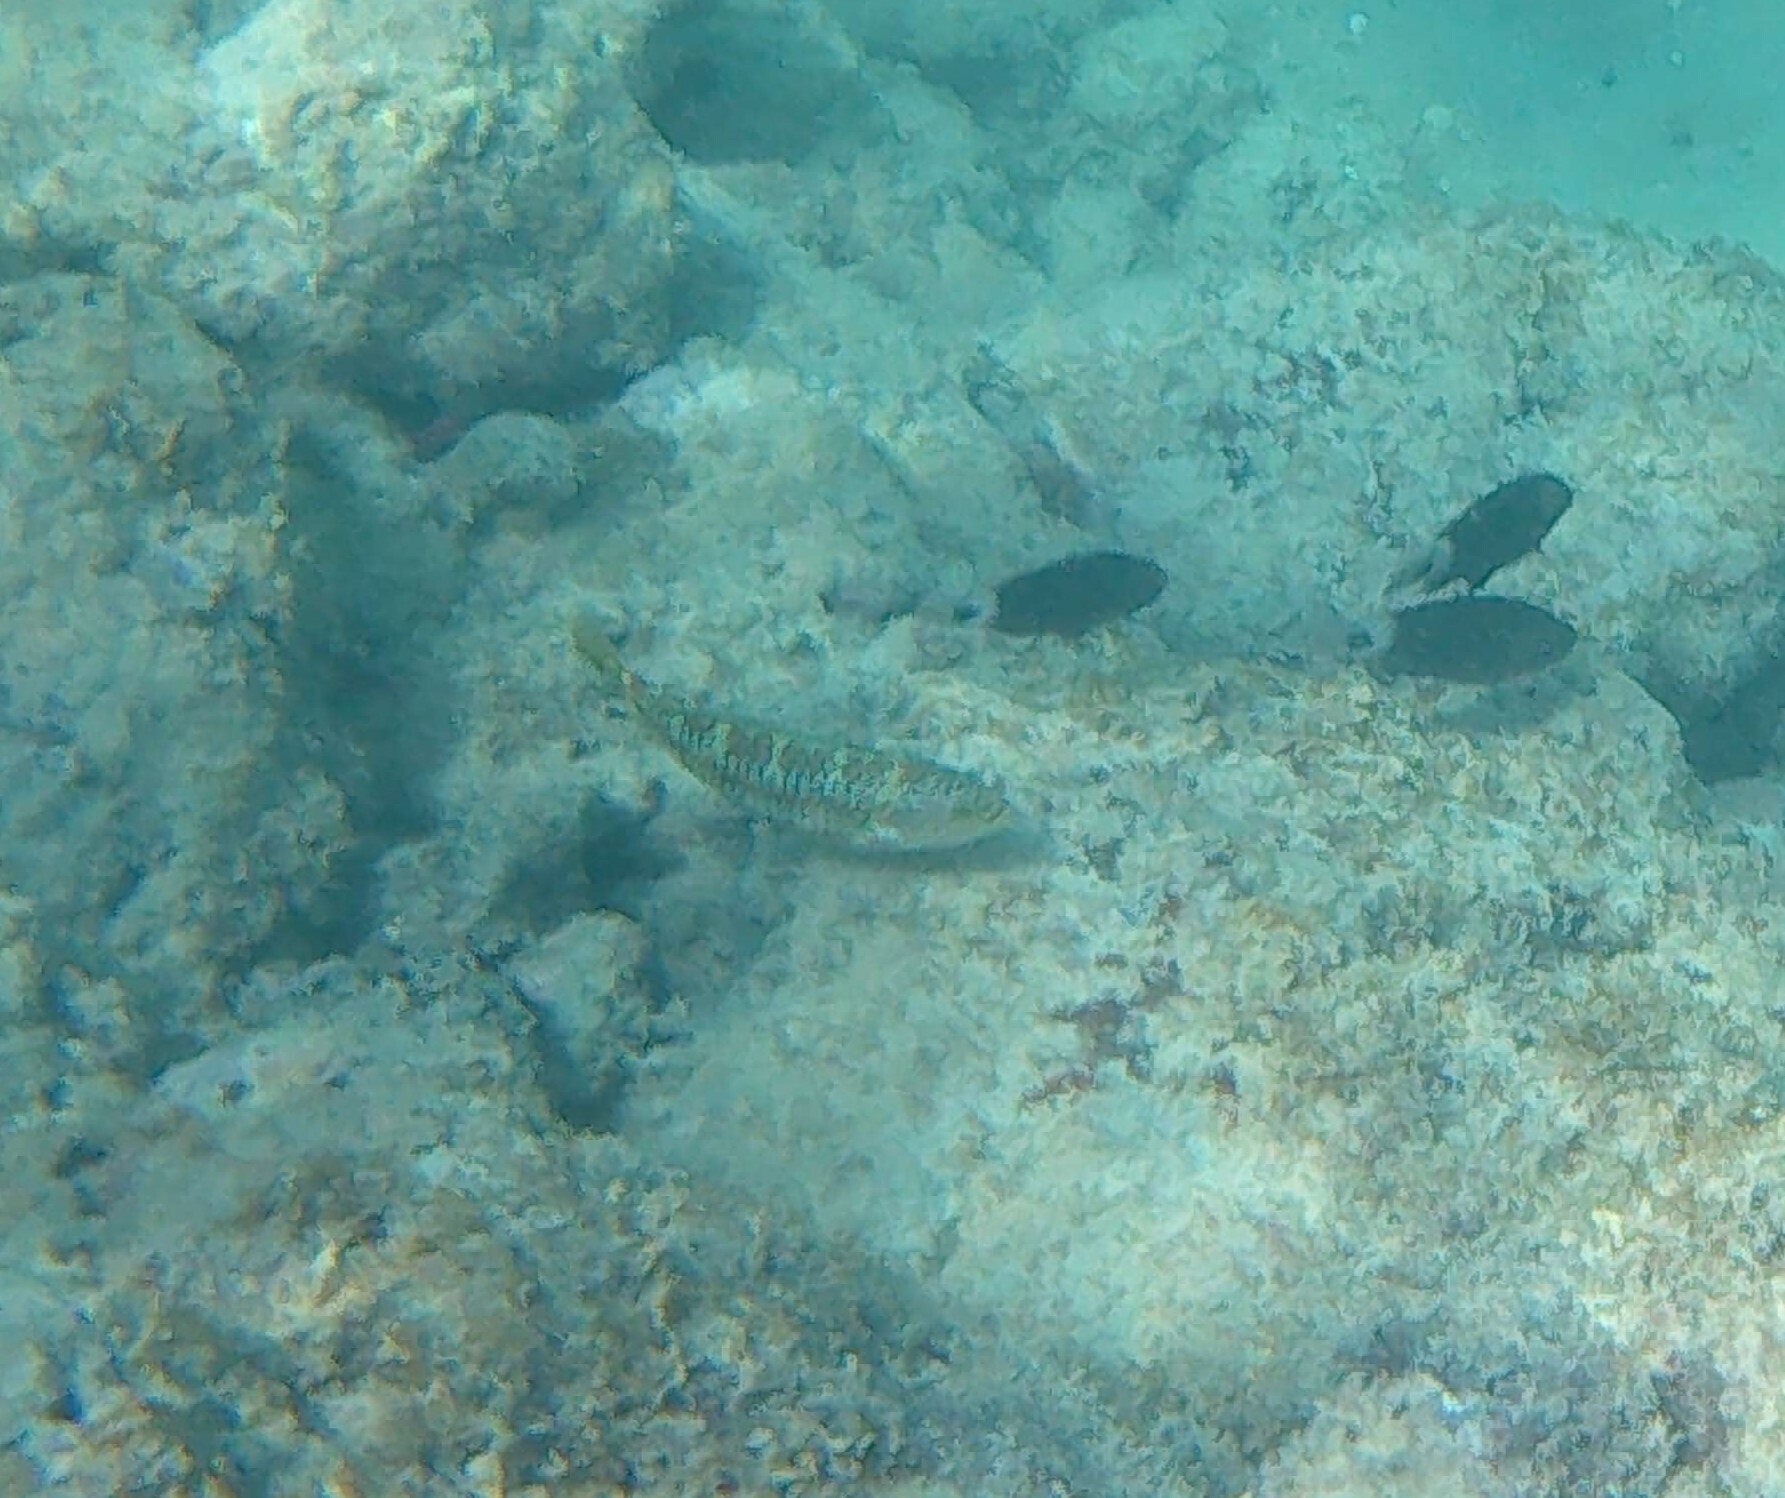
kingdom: Animalia
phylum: Chordata
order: Perciformes
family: Labridae
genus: Thalassoma
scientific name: Thalassoma trilobatum
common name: Christmas wrasse
